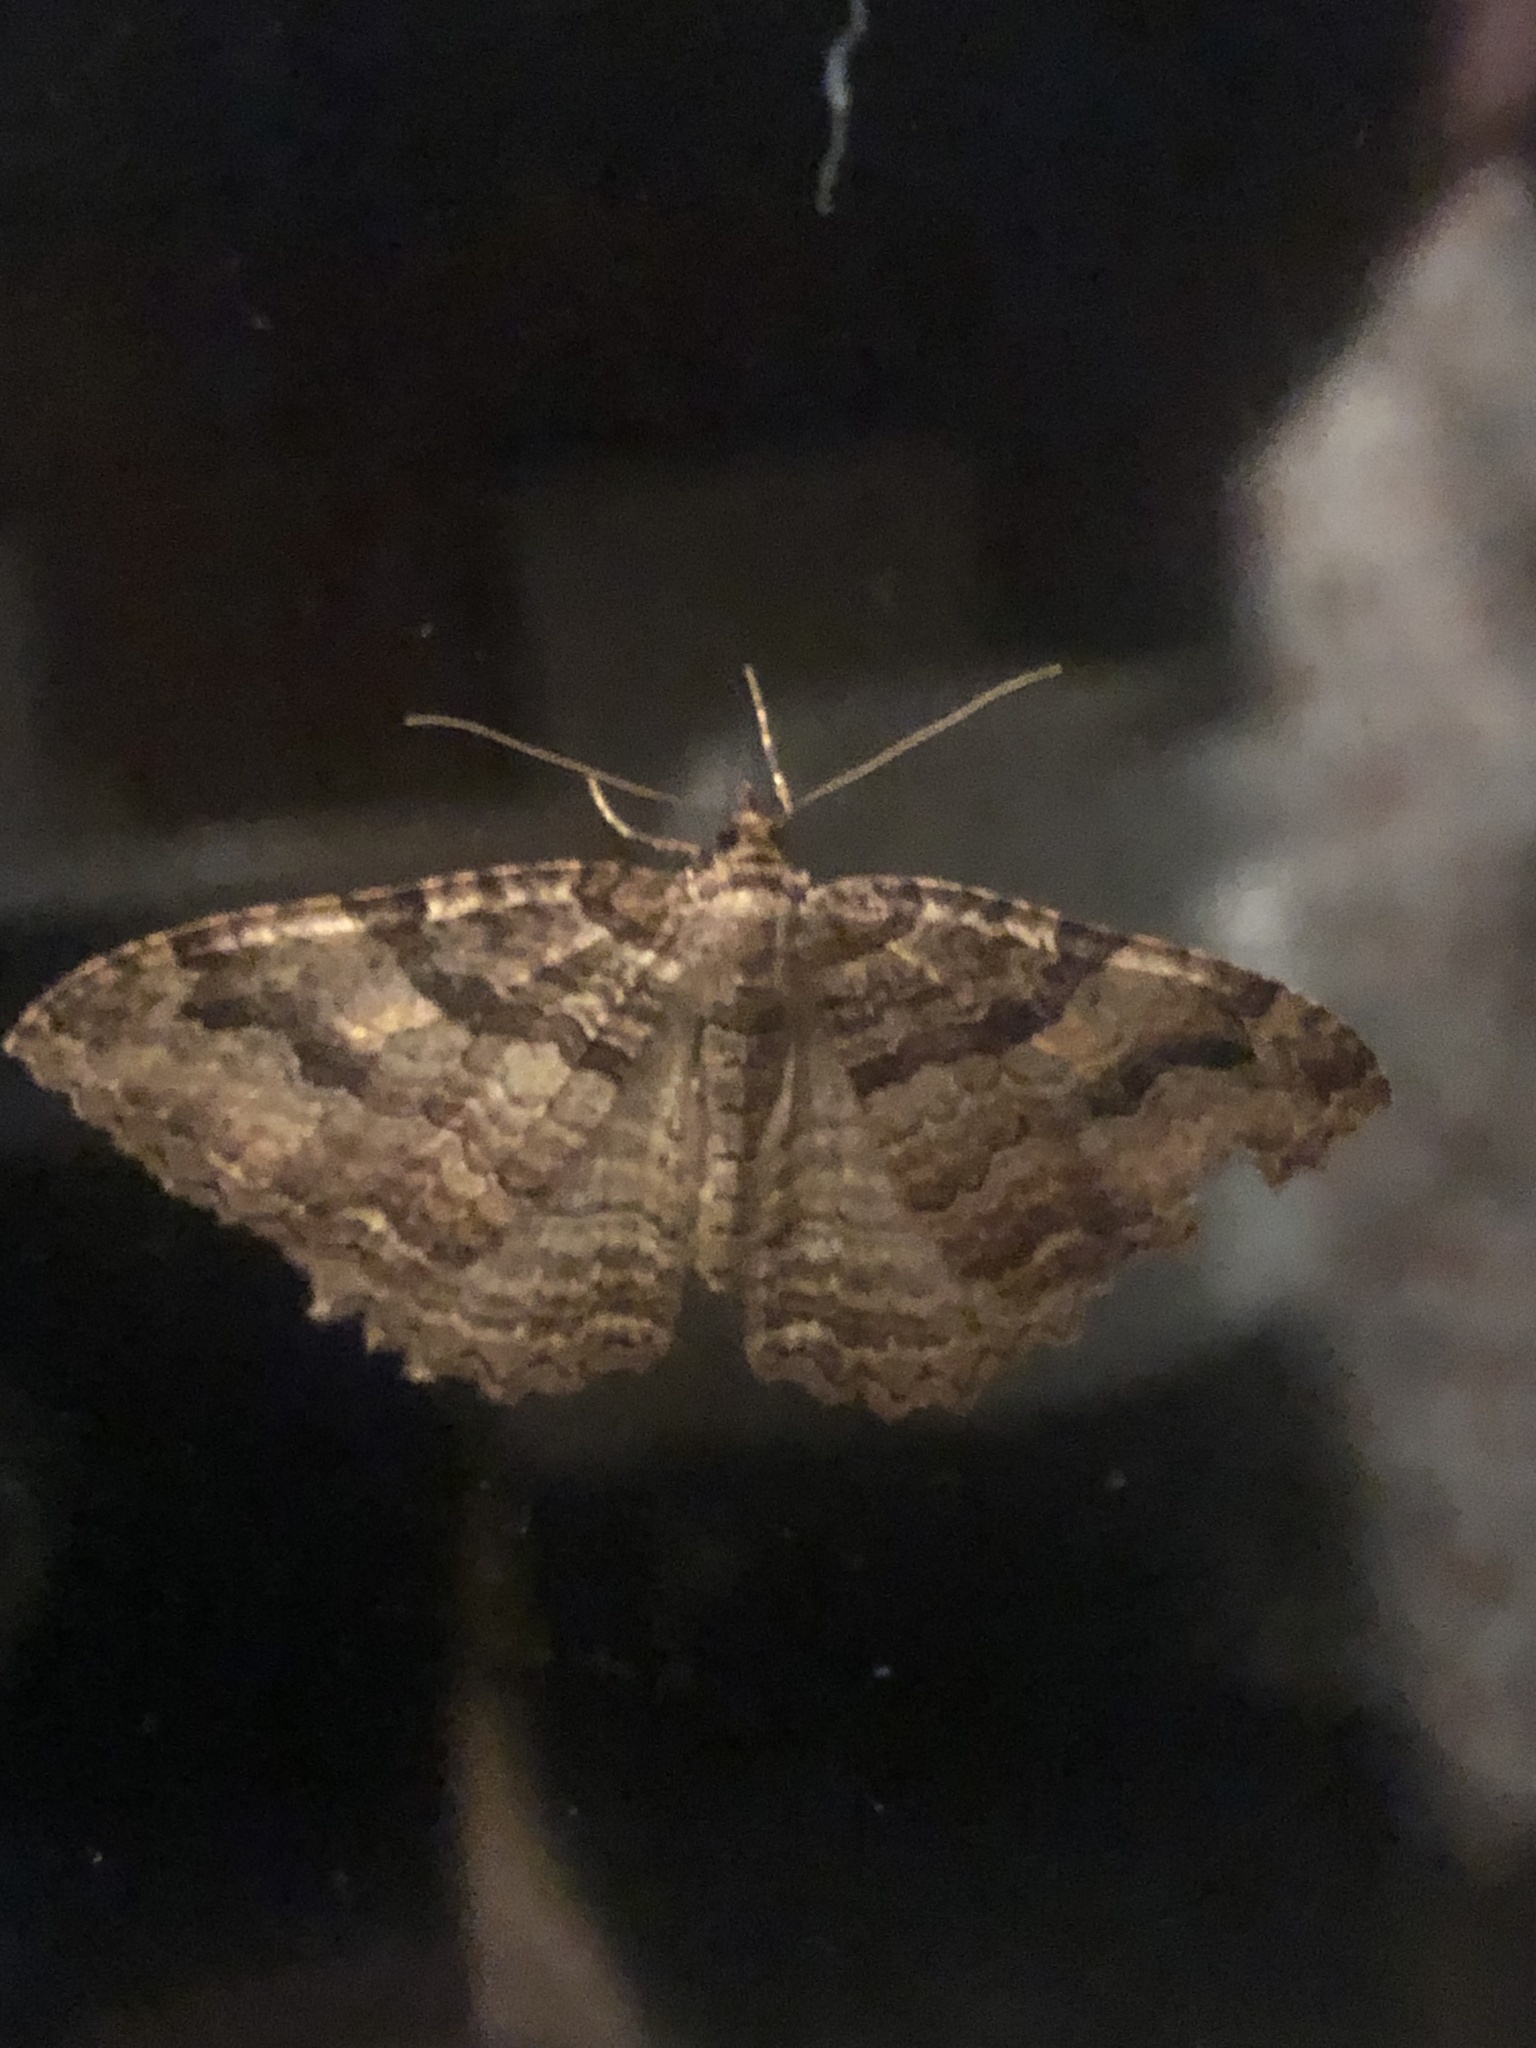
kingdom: Animalia
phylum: Arthropoda
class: Insecta
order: Lepidoptera
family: Geometridae
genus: Triphosa
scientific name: Triphosa haesitata
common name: Tissue moth
